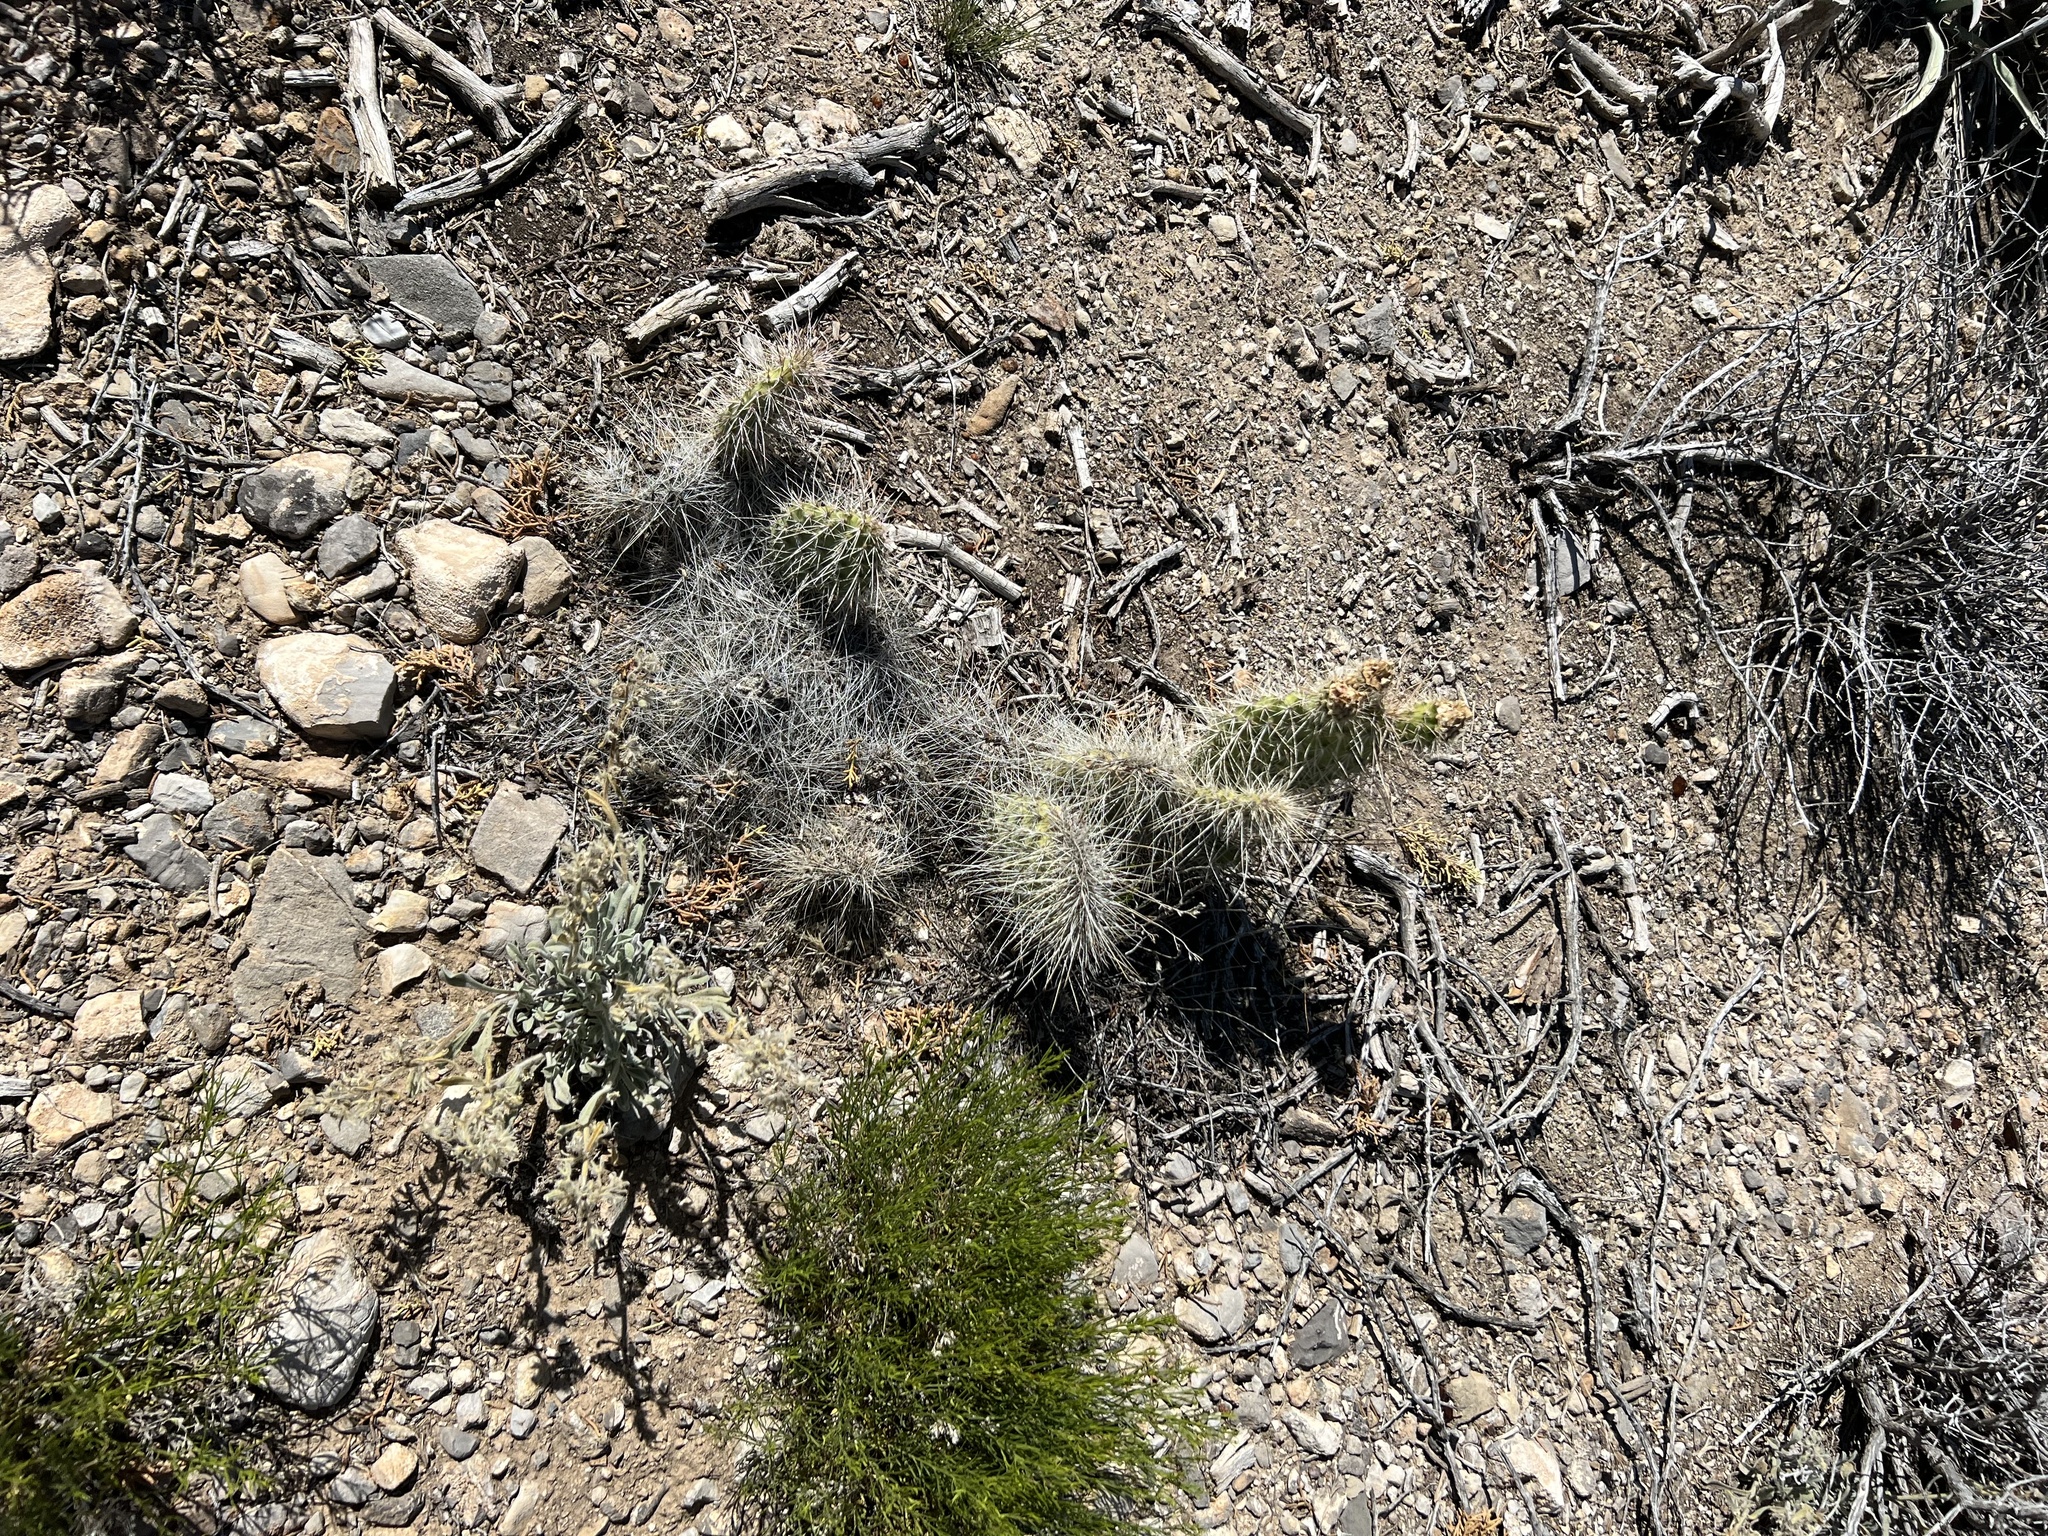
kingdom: Plantae
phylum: Tracheophyta
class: Magnoliopsida
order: Caryophyllales
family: Cactaceae
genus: Opuntia
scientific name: Opuntia polyacantha
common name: Plains prickly-pear
